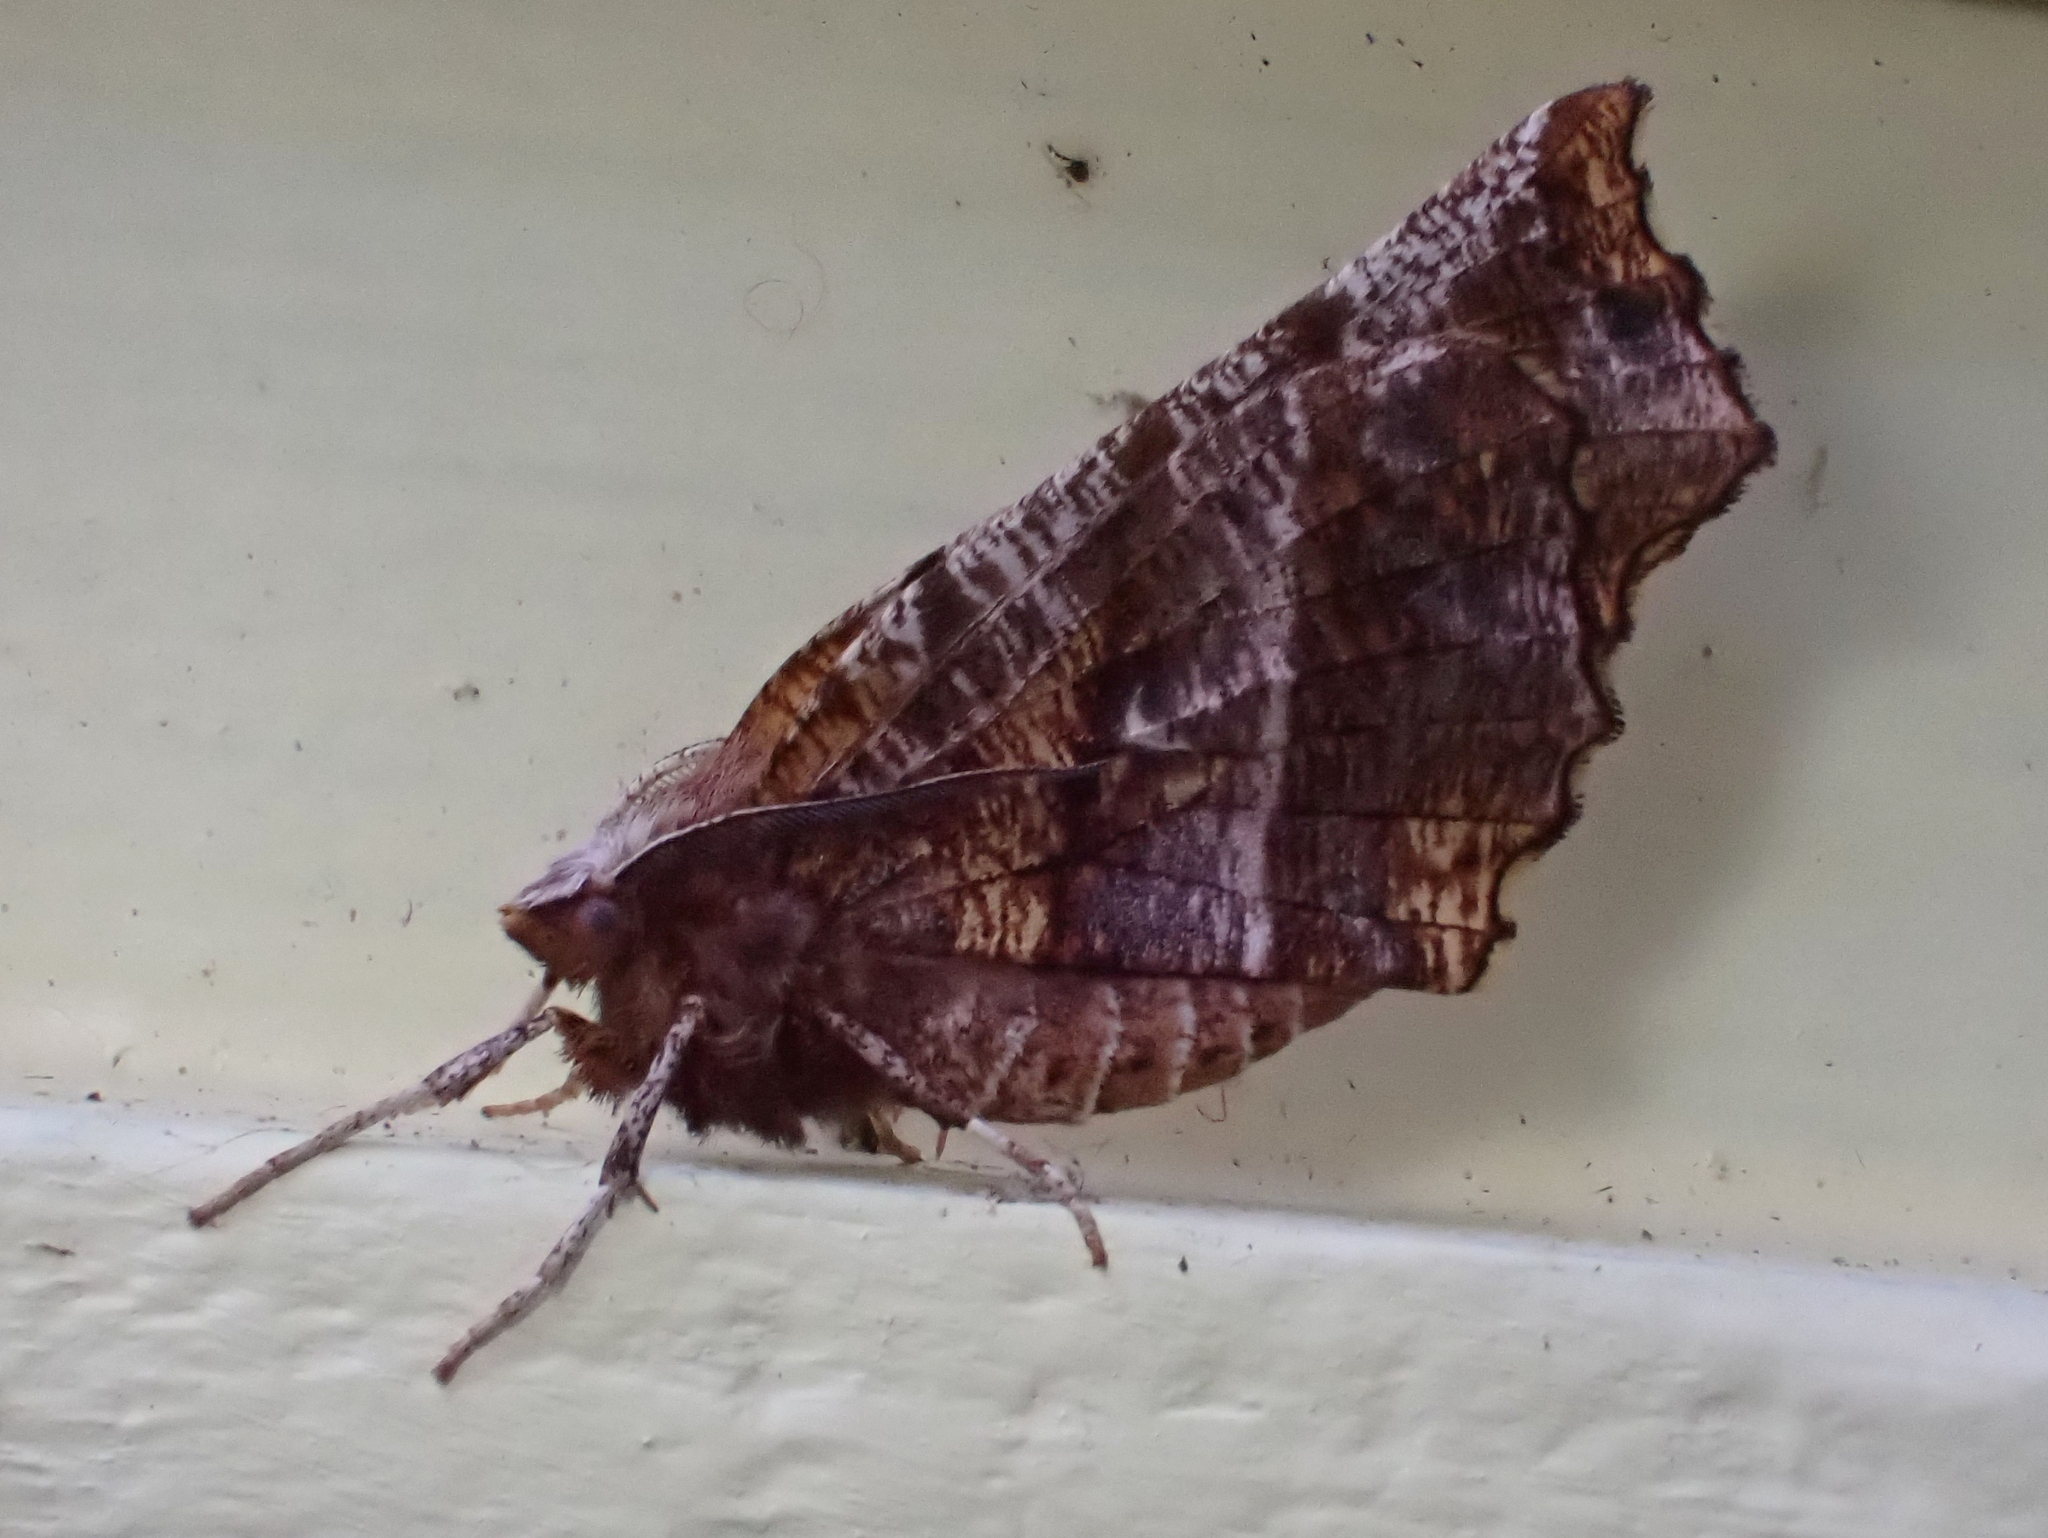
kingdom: Animalia
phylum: Arthropoda
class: Insecta
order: Lepidoptera
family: Geometridae
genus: Selenia
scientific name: Selenia alciphearia
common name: Brown-tipped thorn
